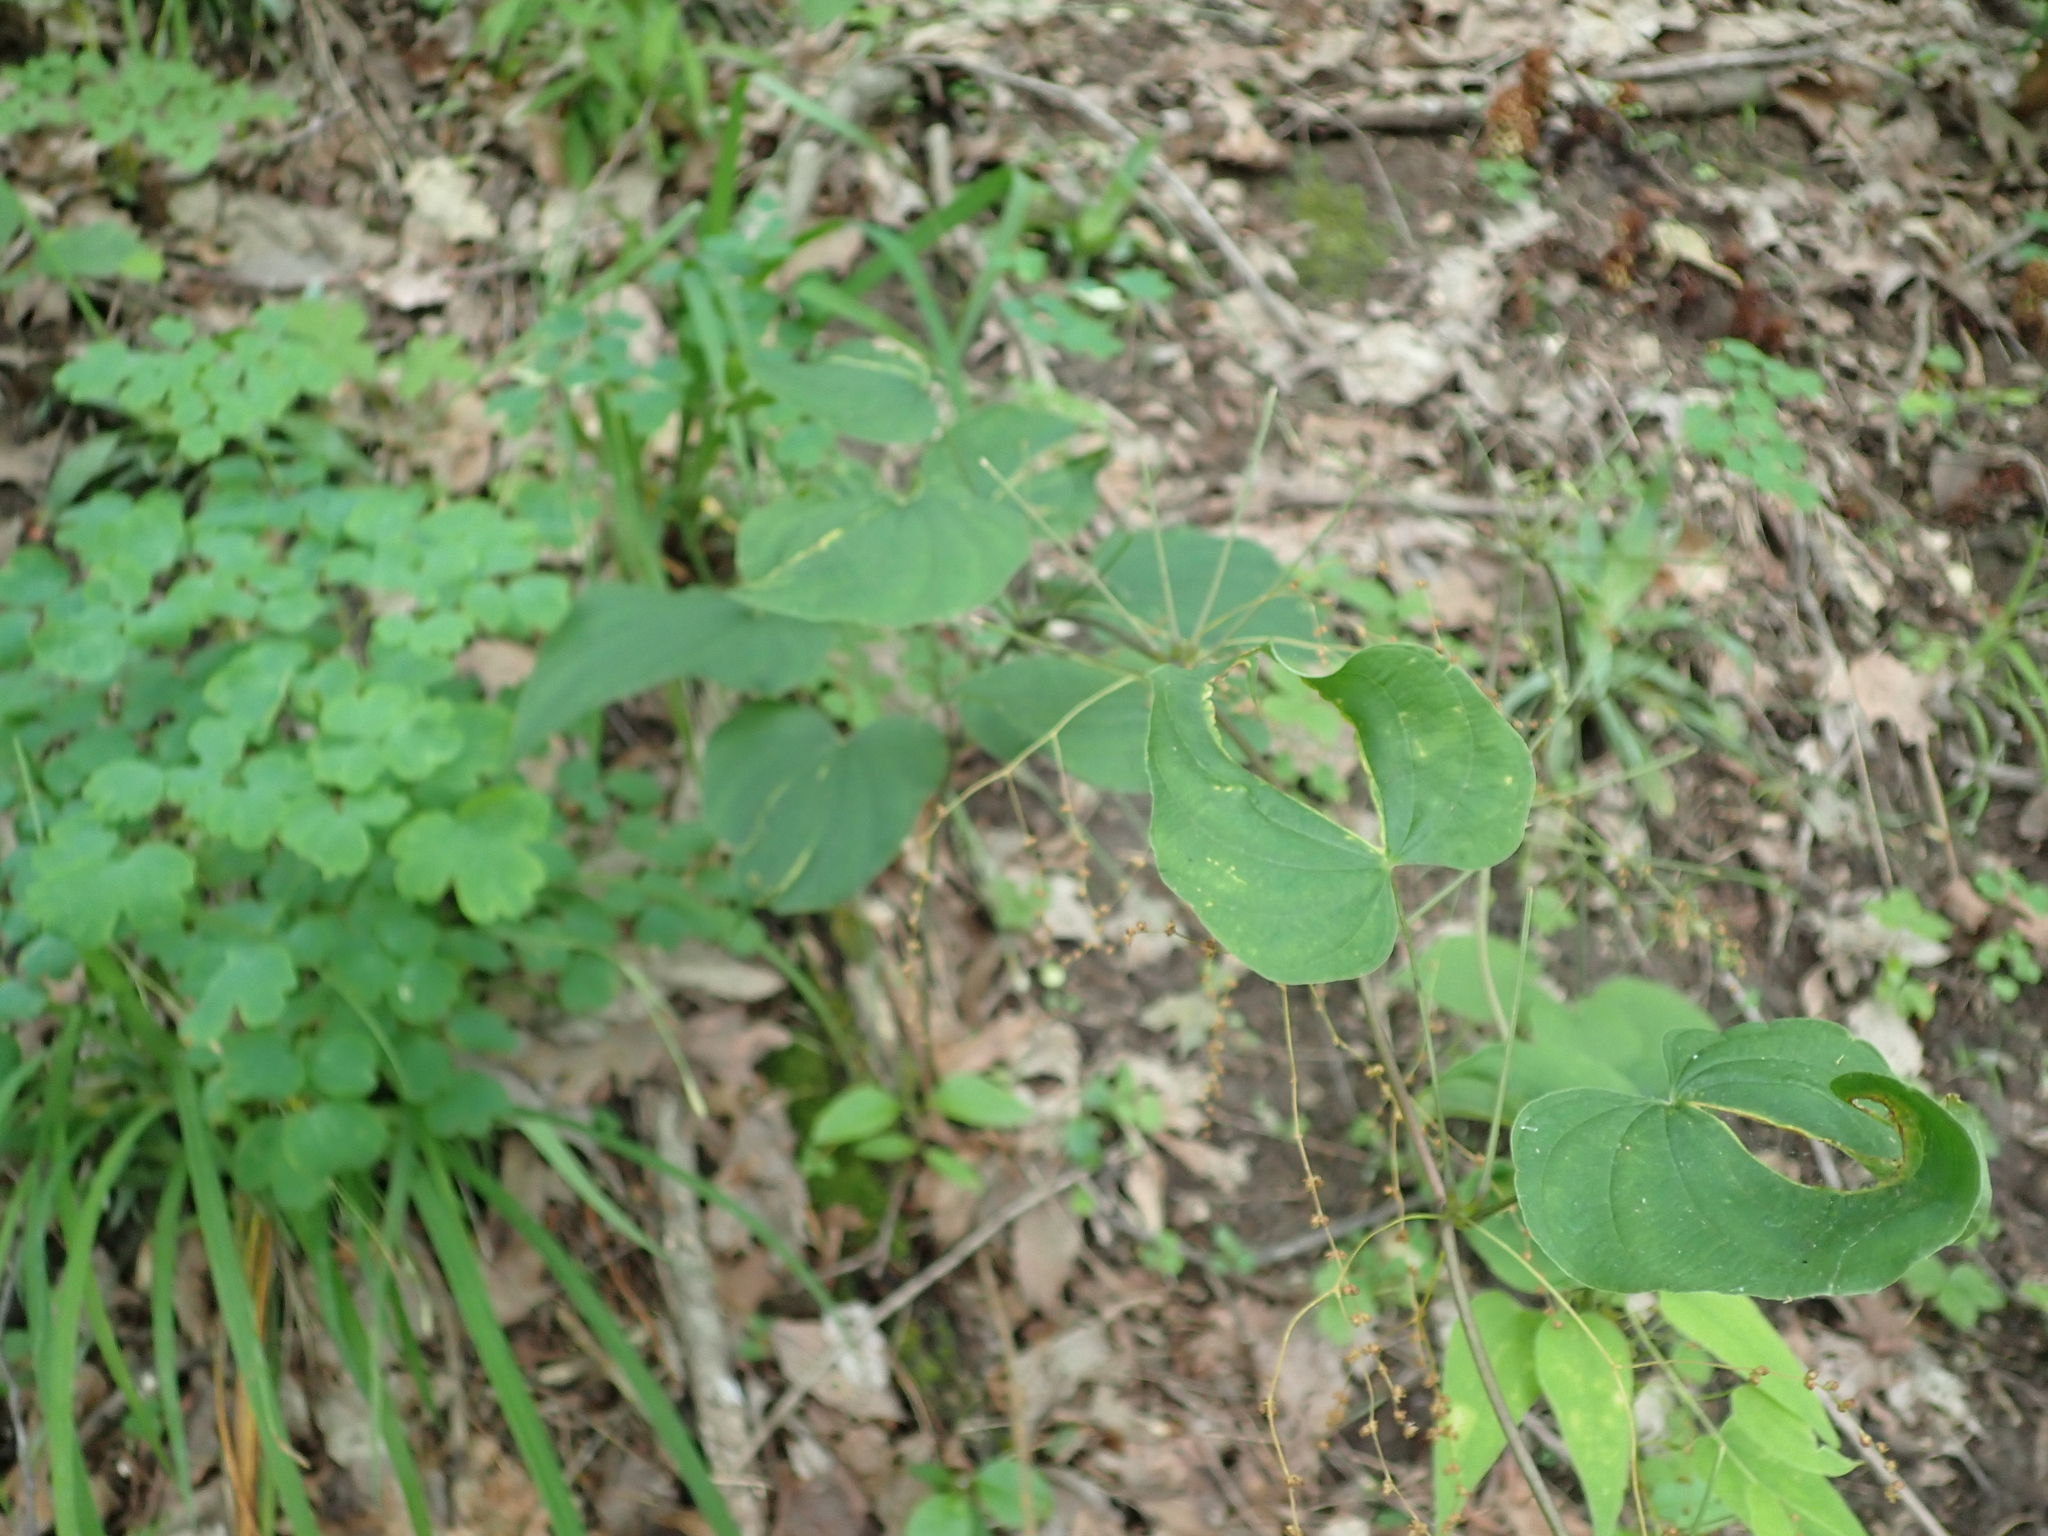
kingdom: Plantae
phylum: Tracheophyta
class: Liliopsida
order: Dioscoreales
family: Dioscoreaceae
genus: Dioscorea
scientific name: Dioscorea villosa
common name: Wild yam
